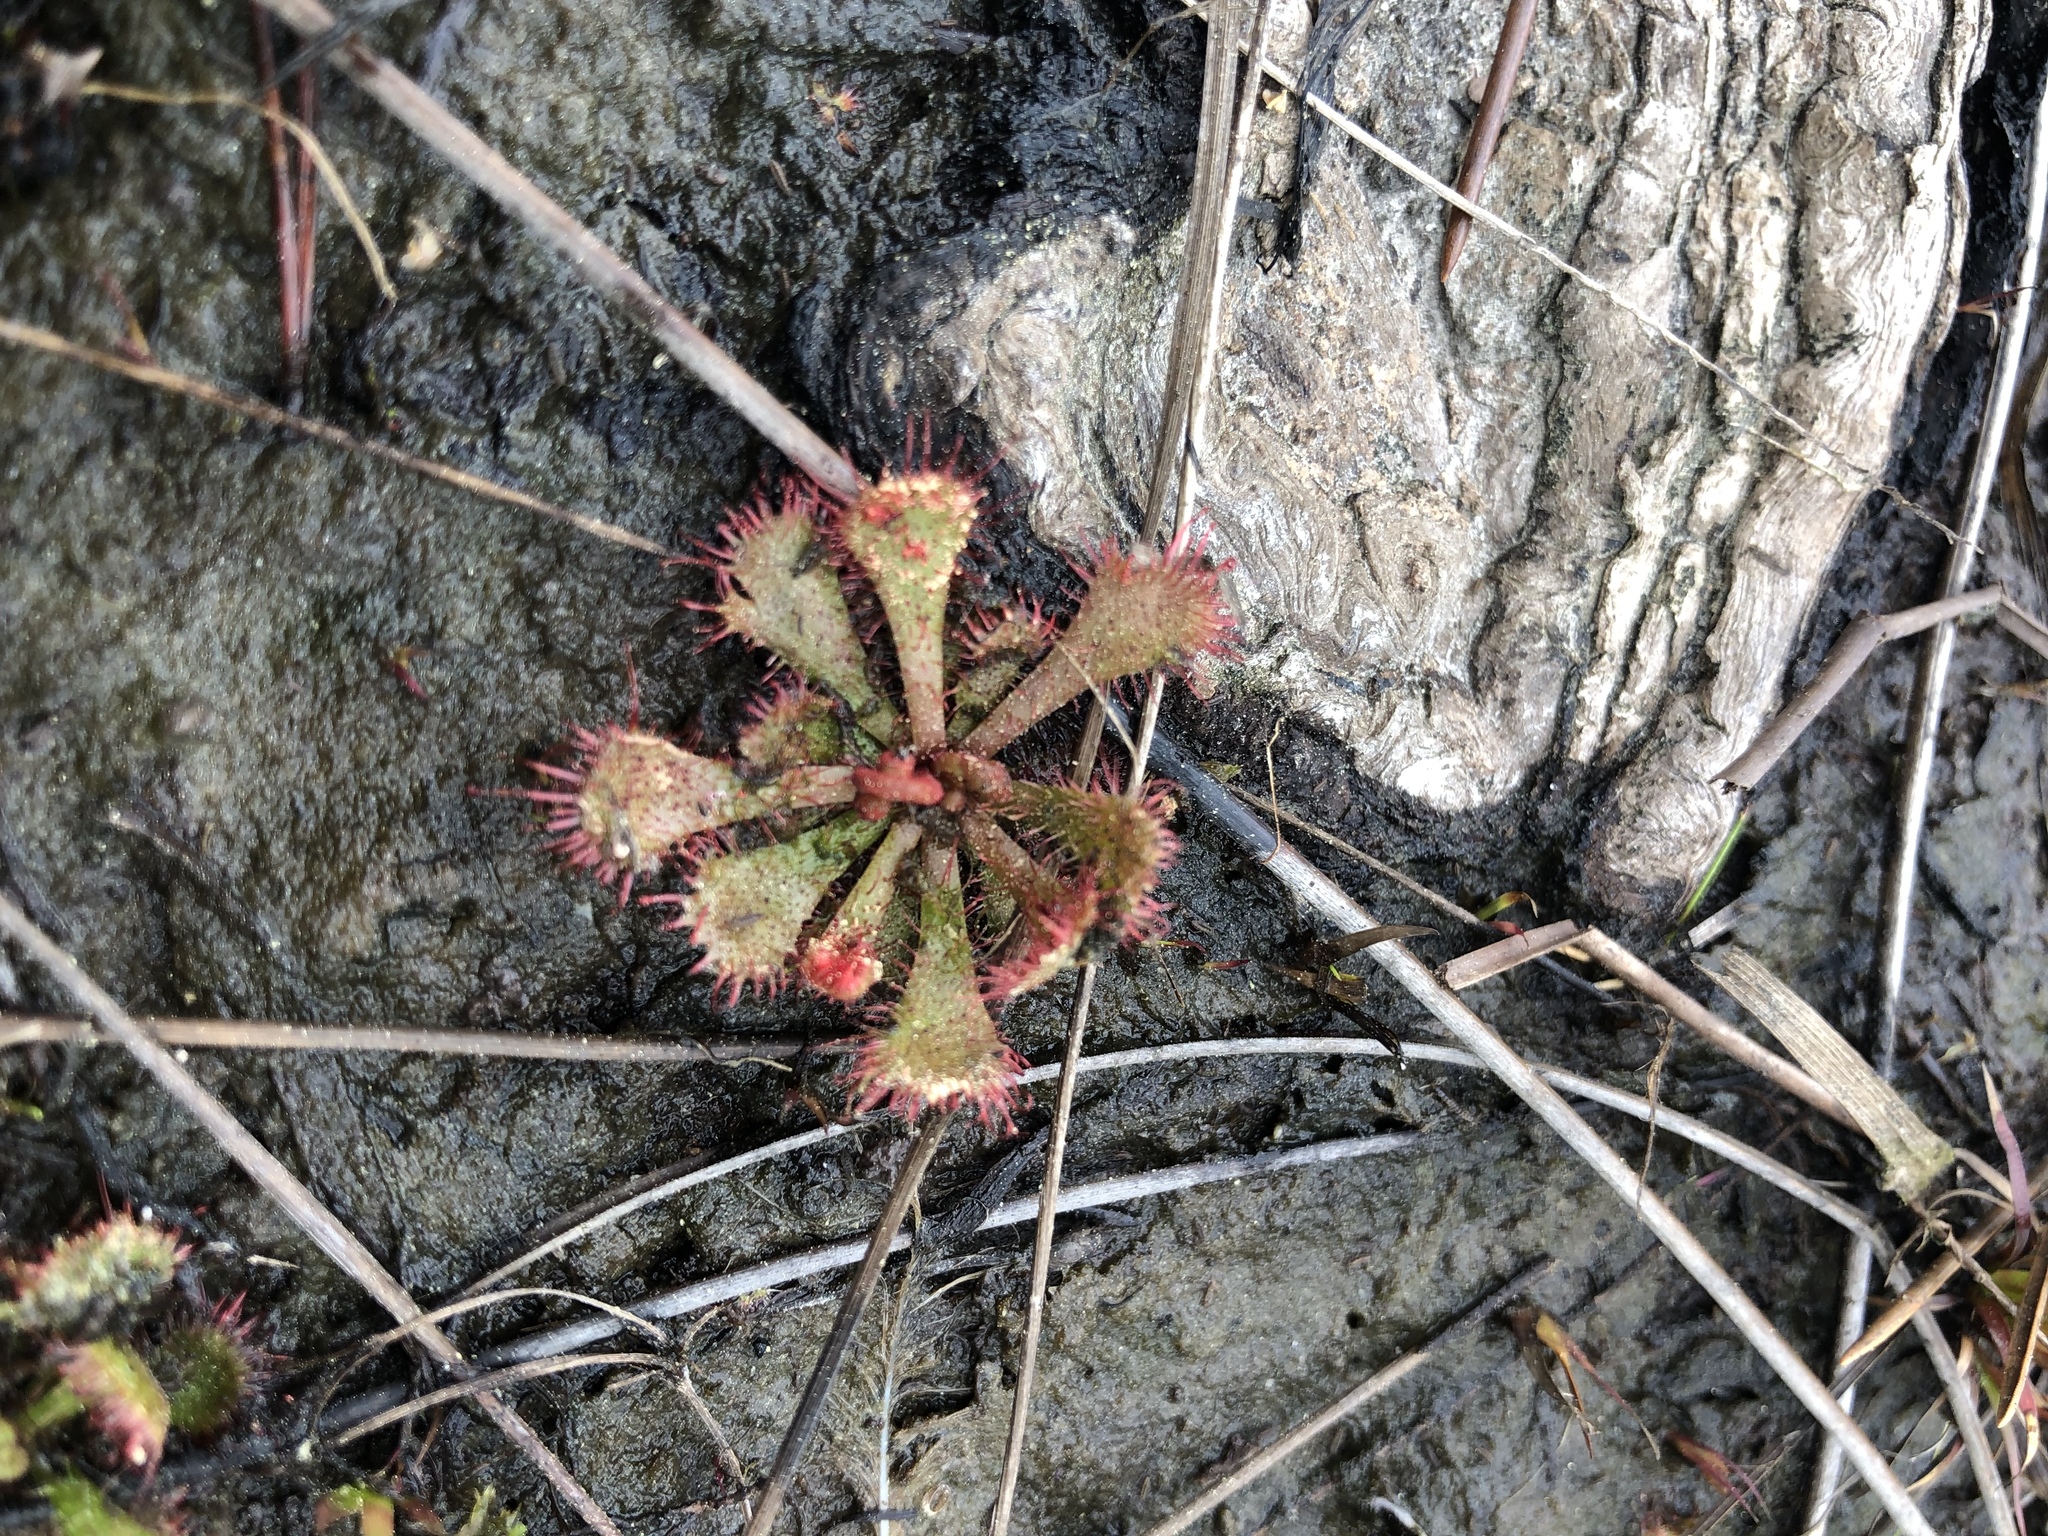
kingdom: Plantae
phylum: Tracheophyta
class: Magnoliopsida
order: Caryophyllales
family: Droseraceae
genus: Drosera
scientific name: Drosera brevifolia
